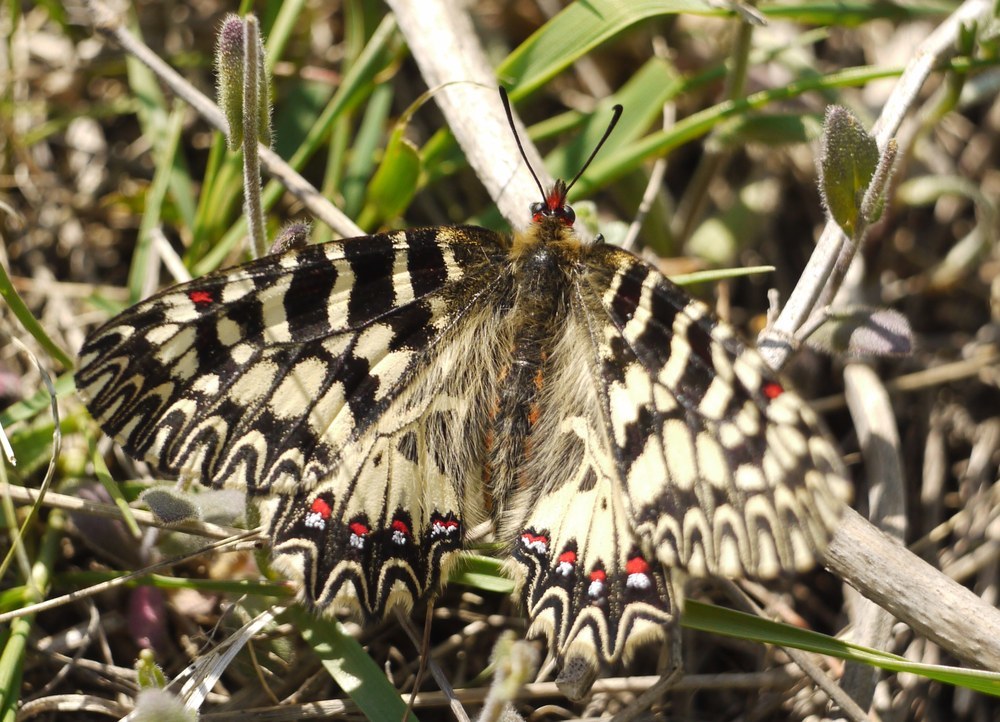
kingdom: Animalia
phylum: Arthropoda
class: Insecta
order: Lepidoptera
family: Papilionidae
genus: Zerynthia
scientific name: Zerynthia polyxena
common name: Southern festoon
